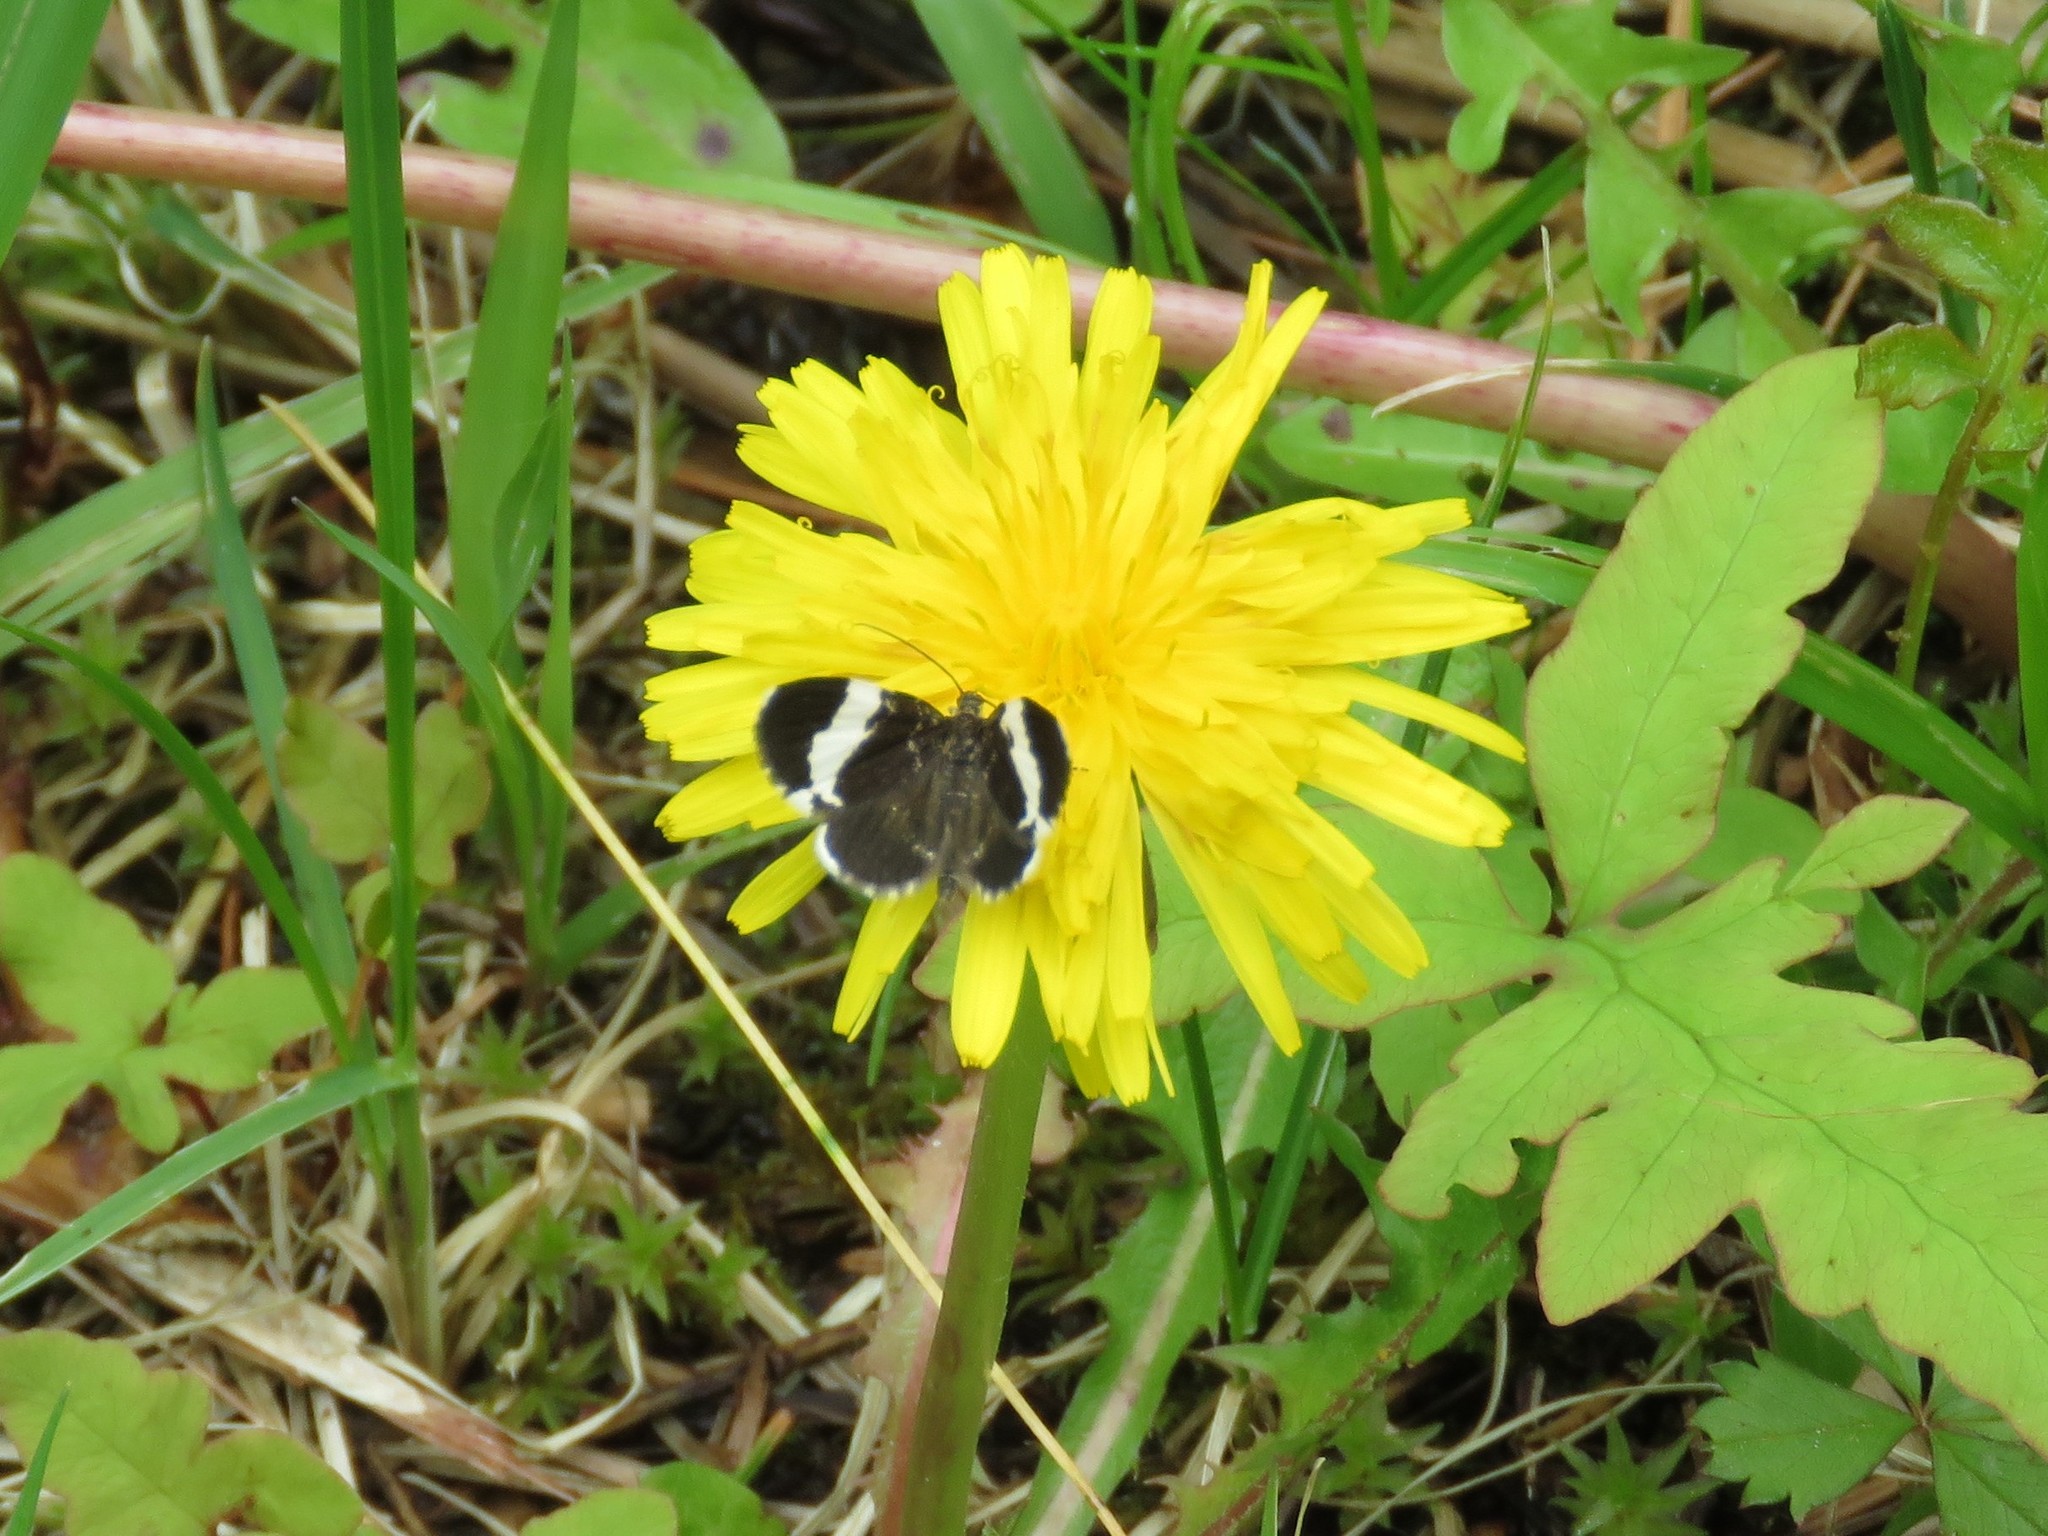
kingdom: Animalia
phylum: Arthropoda
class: Insecta
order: Lepidoptera
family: Geometridae
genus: Trichodezia
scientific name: Trichodezia albovittata
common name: White striped black
